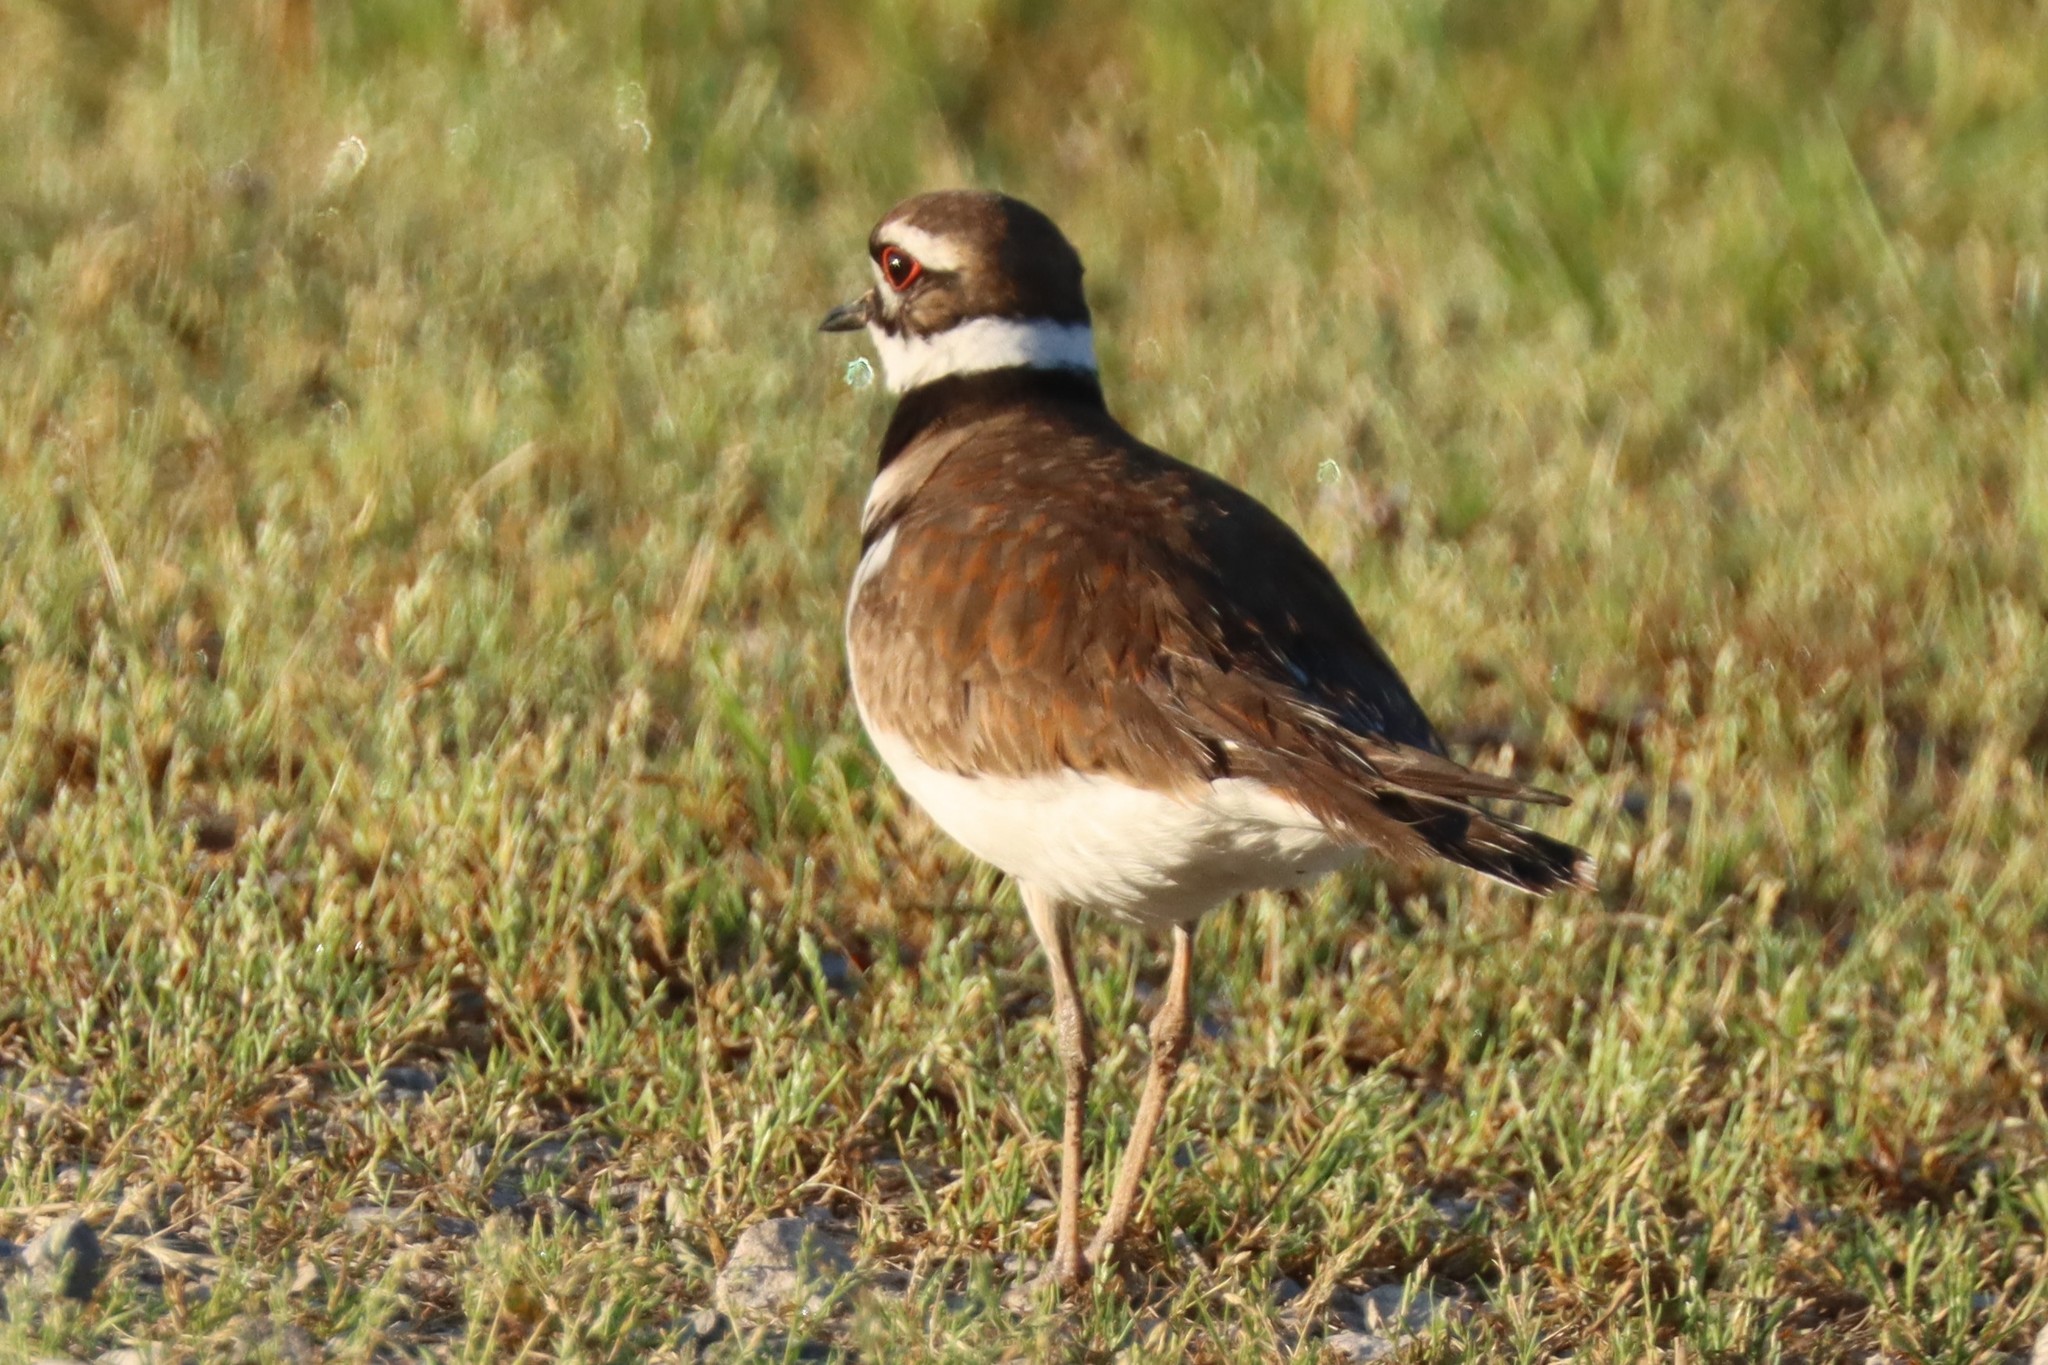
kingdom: Animalia
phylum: Chordata
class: Aves
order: Charadriiformes
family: Charadriidae
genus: Charadrius
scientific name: Charadrius vociferus
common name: Killdeer
